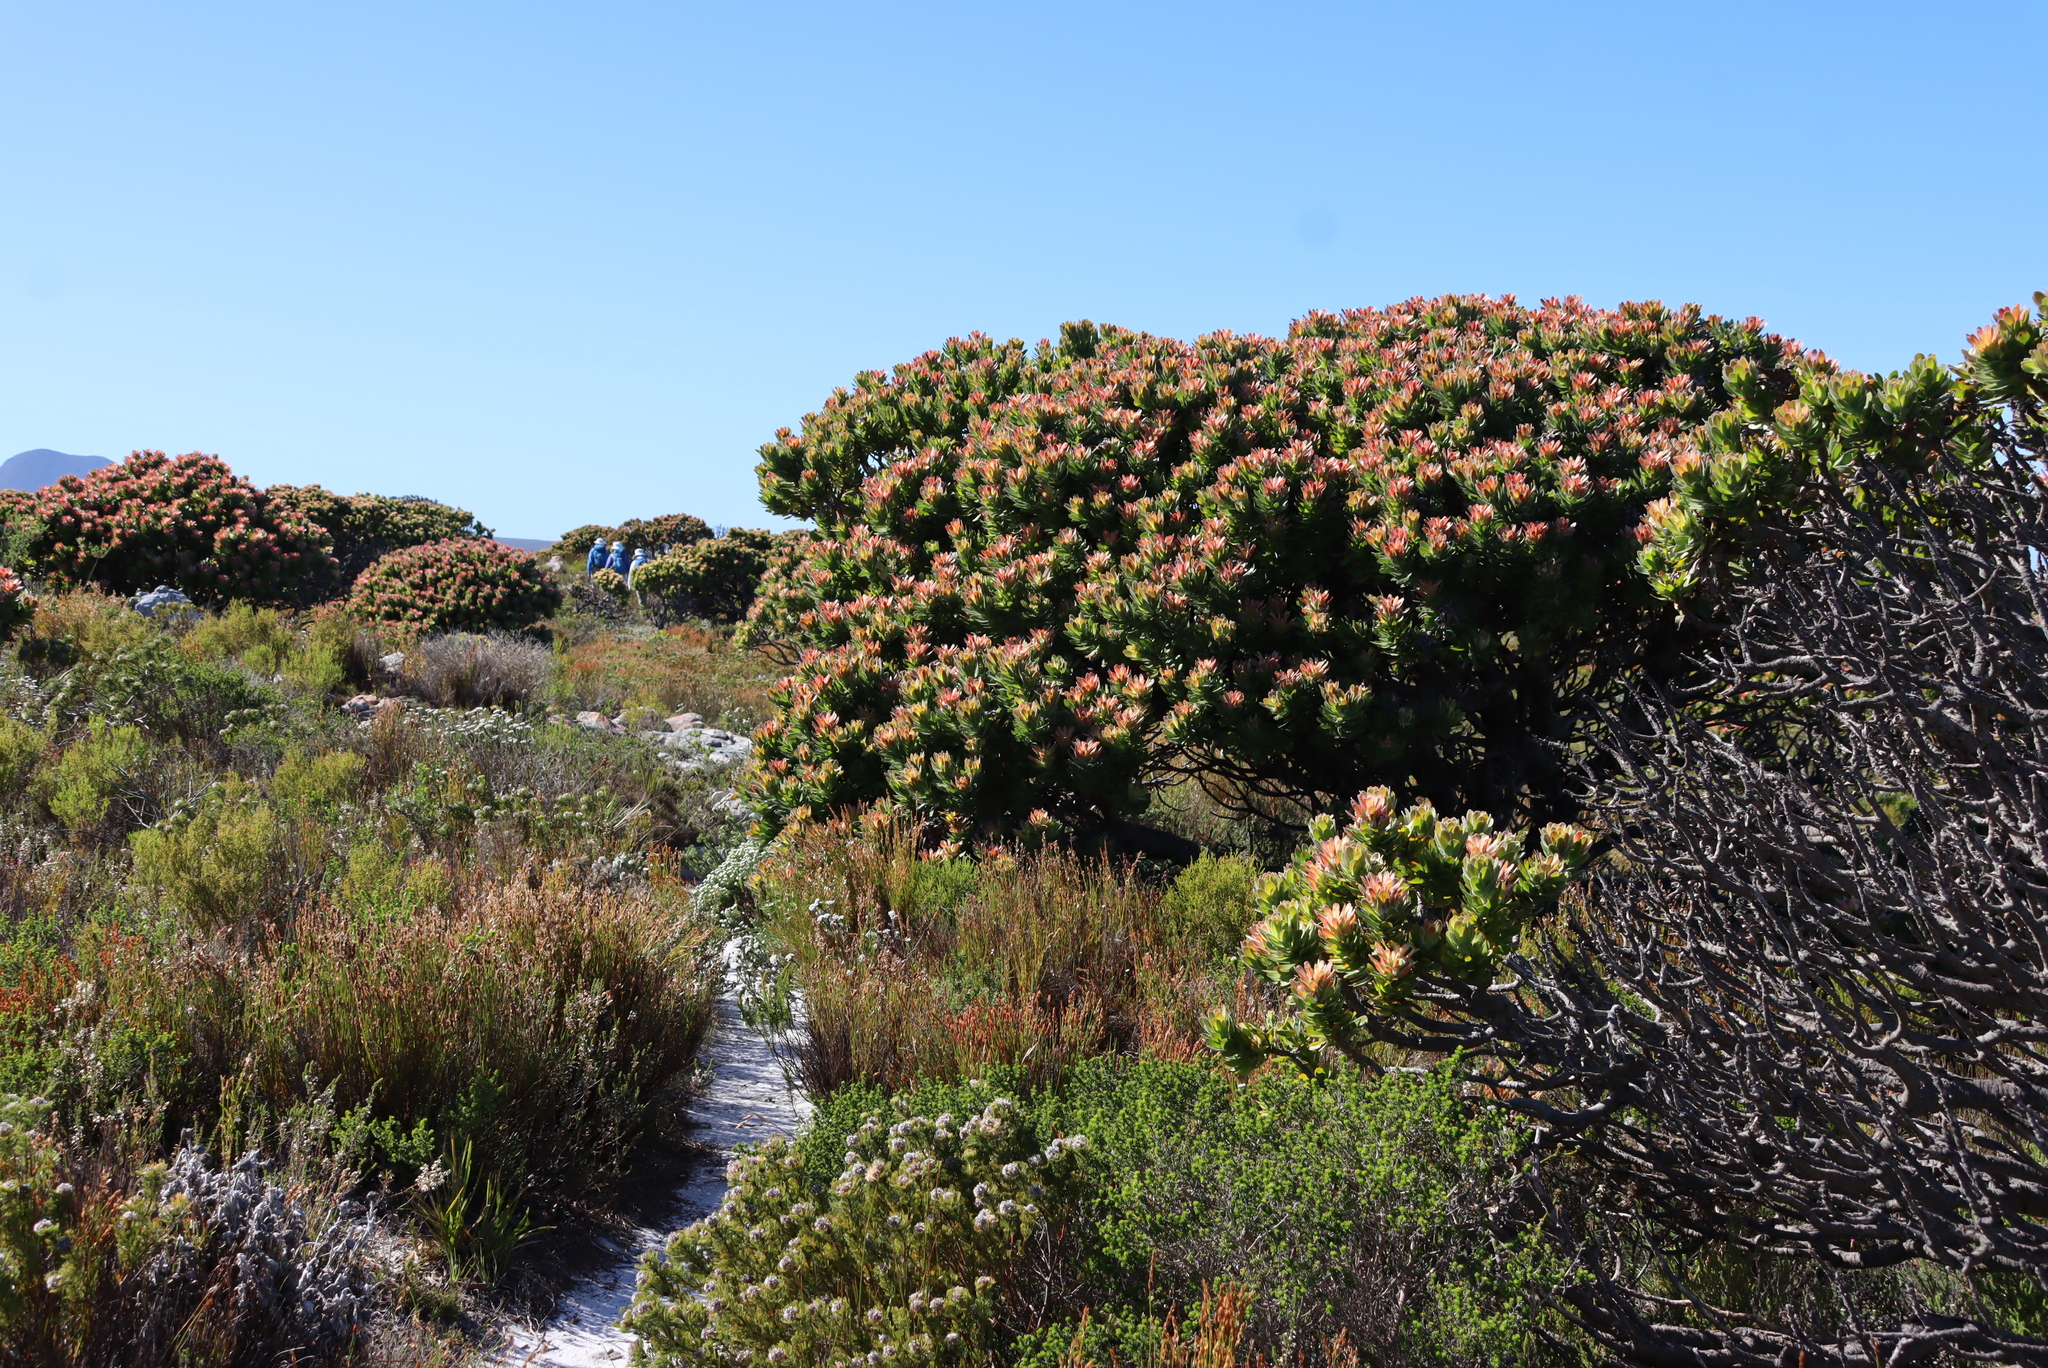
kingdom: Plantae
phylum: Tracheophyta
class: Magnoliopsida
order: Proteales
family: Proteaceae
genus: Mimetes
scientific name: Mimetes fimbriifolius
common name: Fringed bottlebrush
